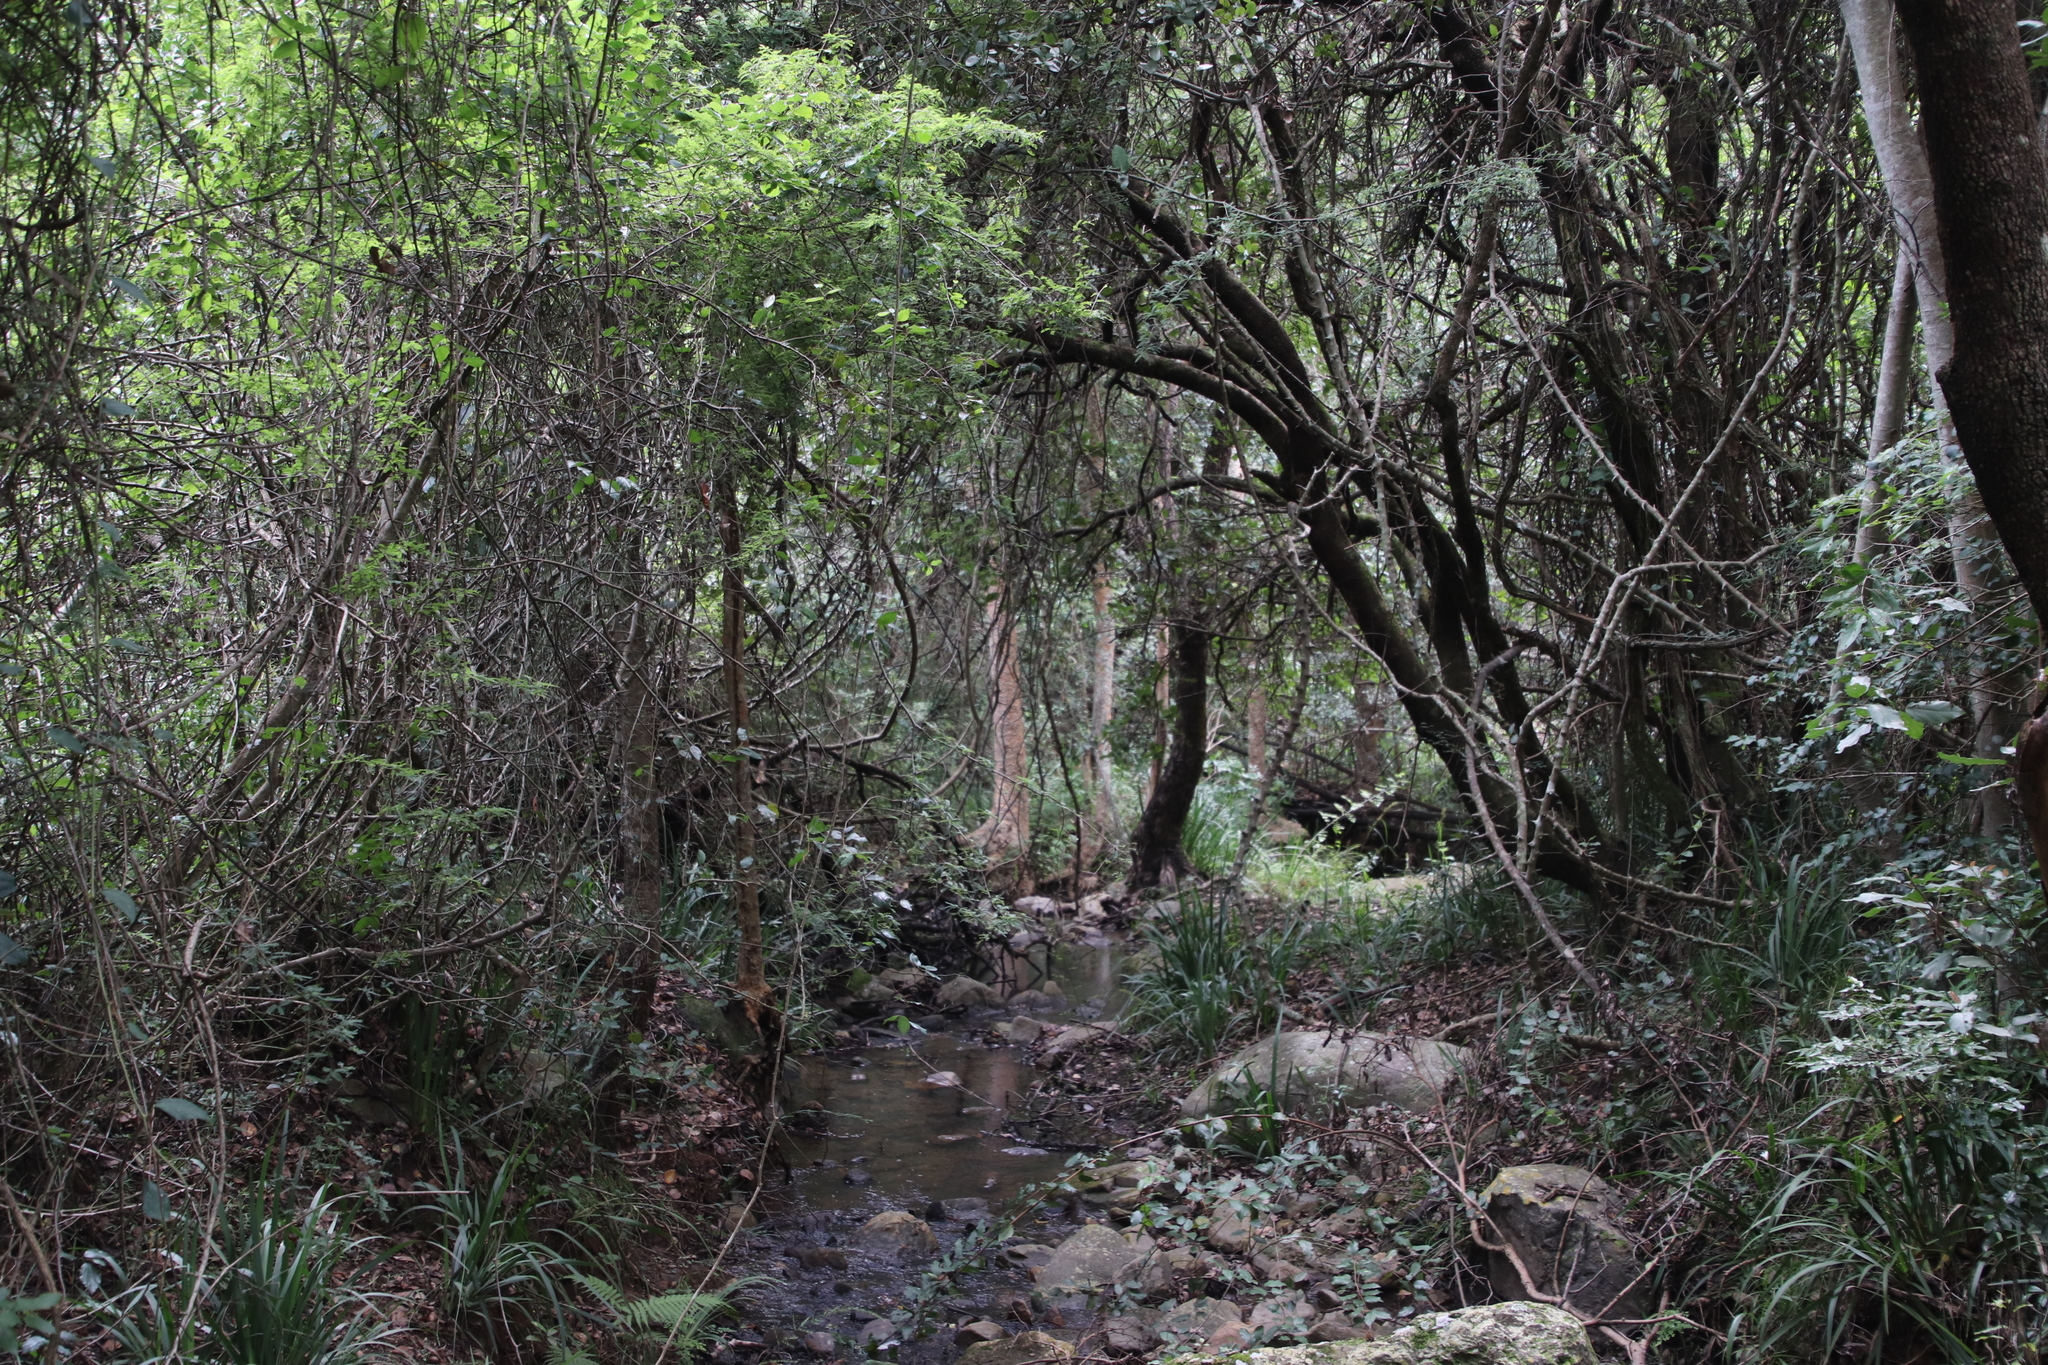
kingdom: Plantae
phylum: Tracheophyta
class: Magnoliopsida
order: Fabales
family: Fabaceae
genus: Abrus
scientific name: Abrus laevigatus
